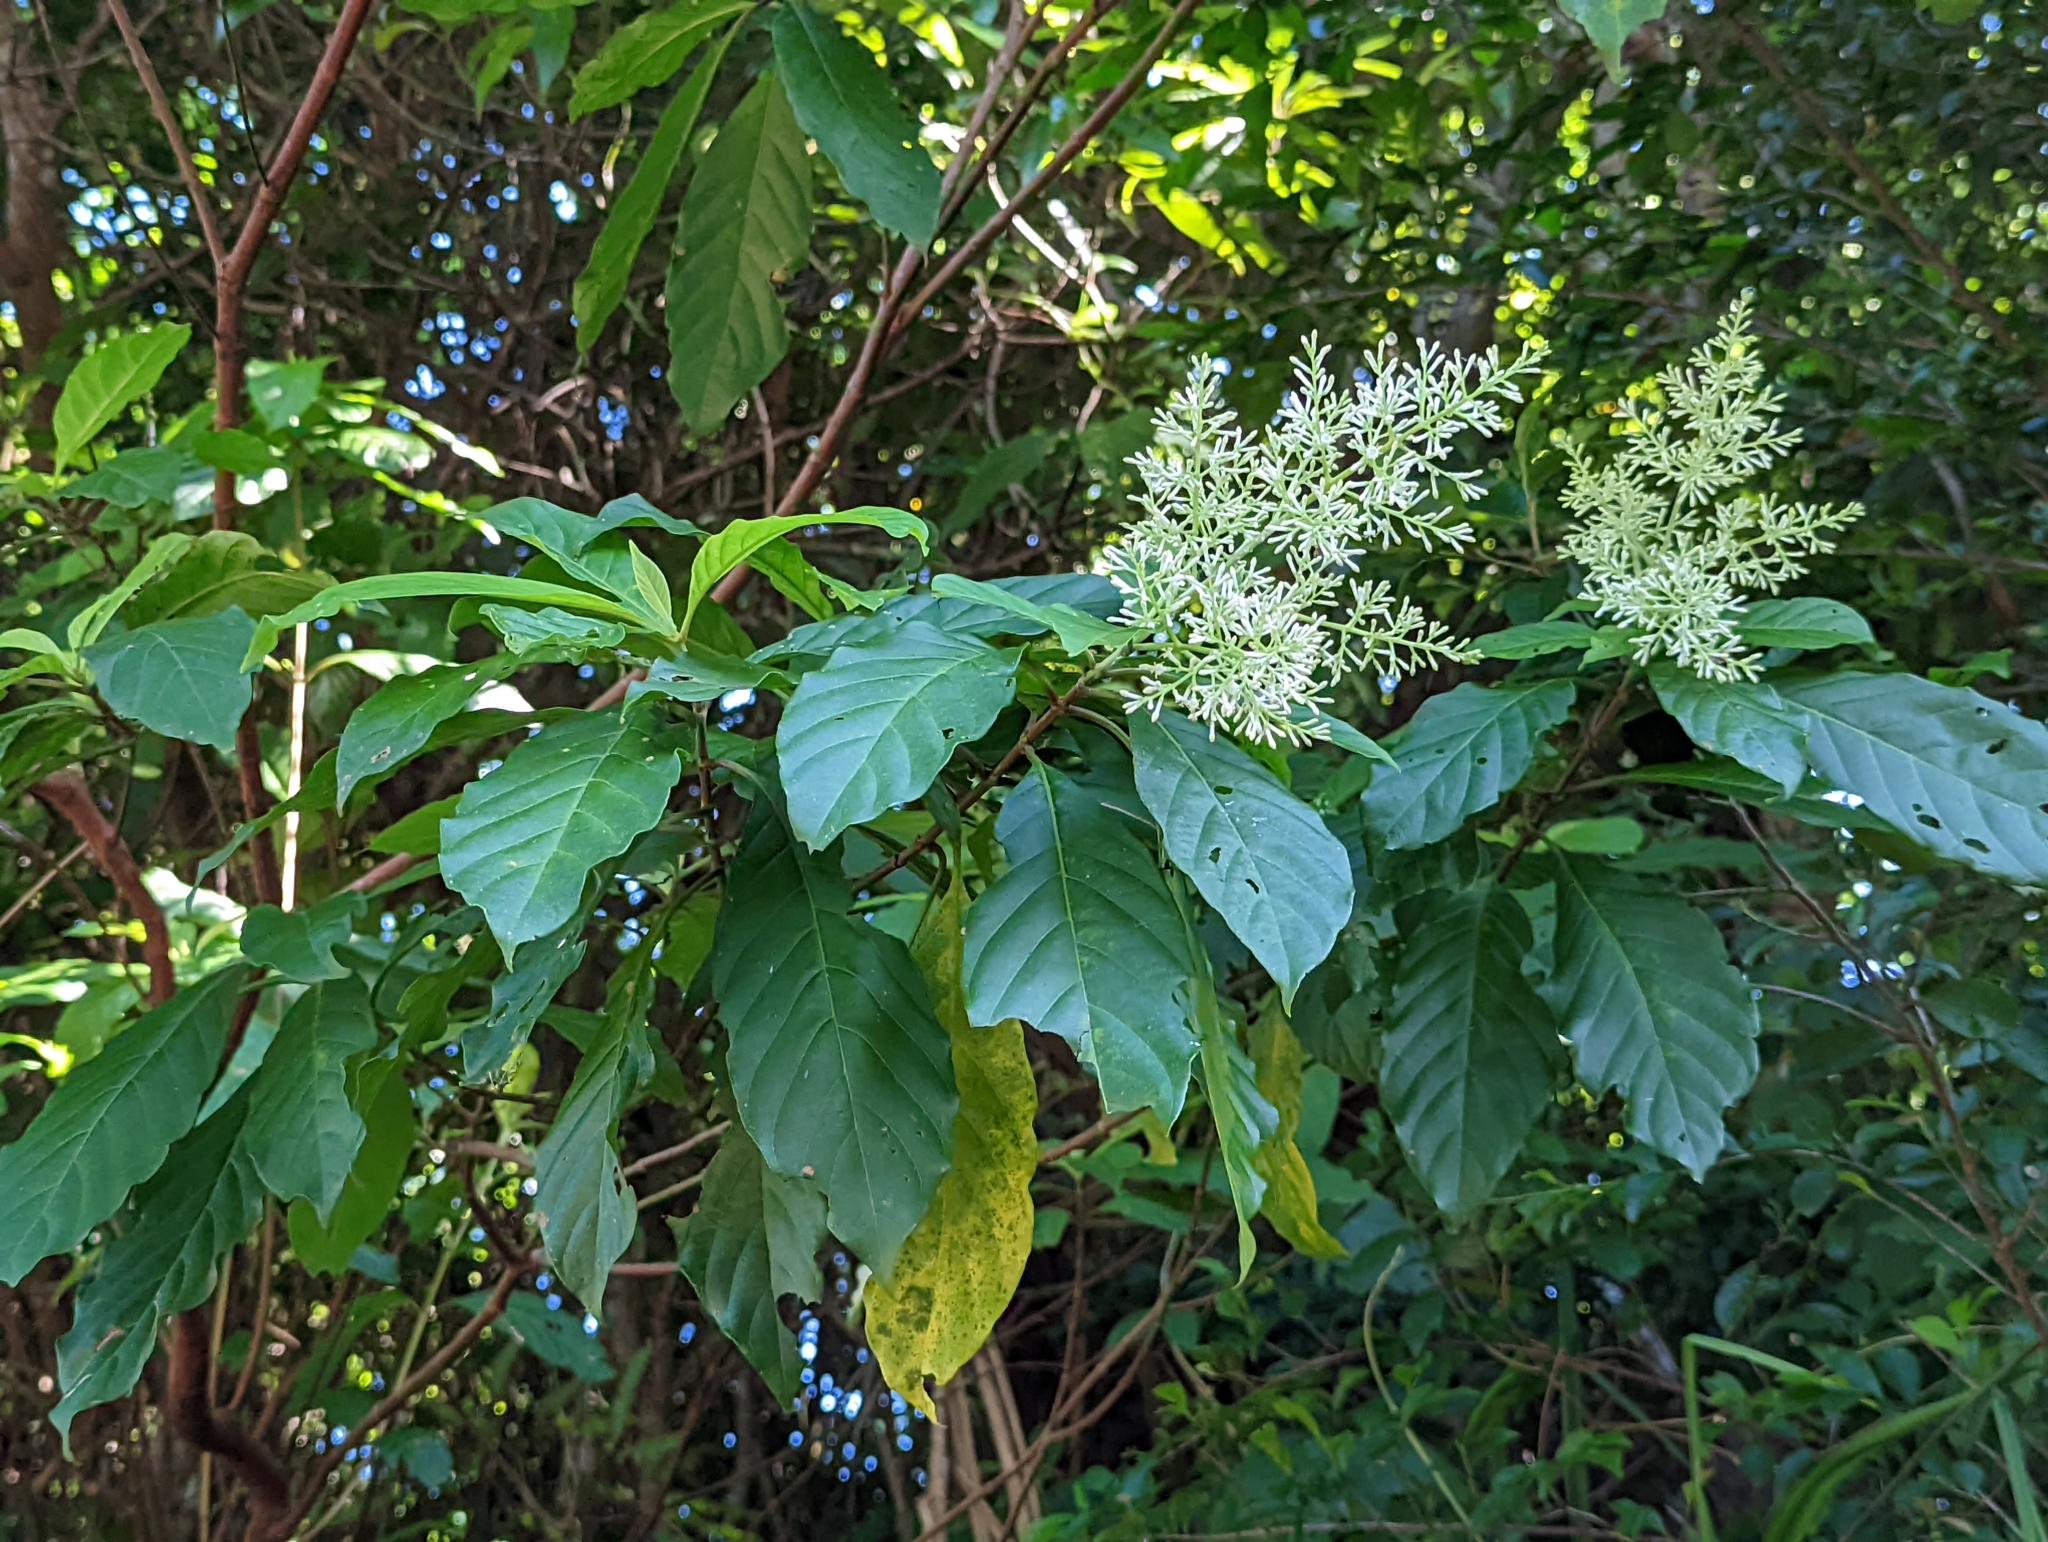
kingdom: Plantae
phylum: Tracheophyta
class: Magnoliopsida
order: Gentianales
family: Rubiaceae
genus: Wendlandia
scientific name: Wendlandia formosana
